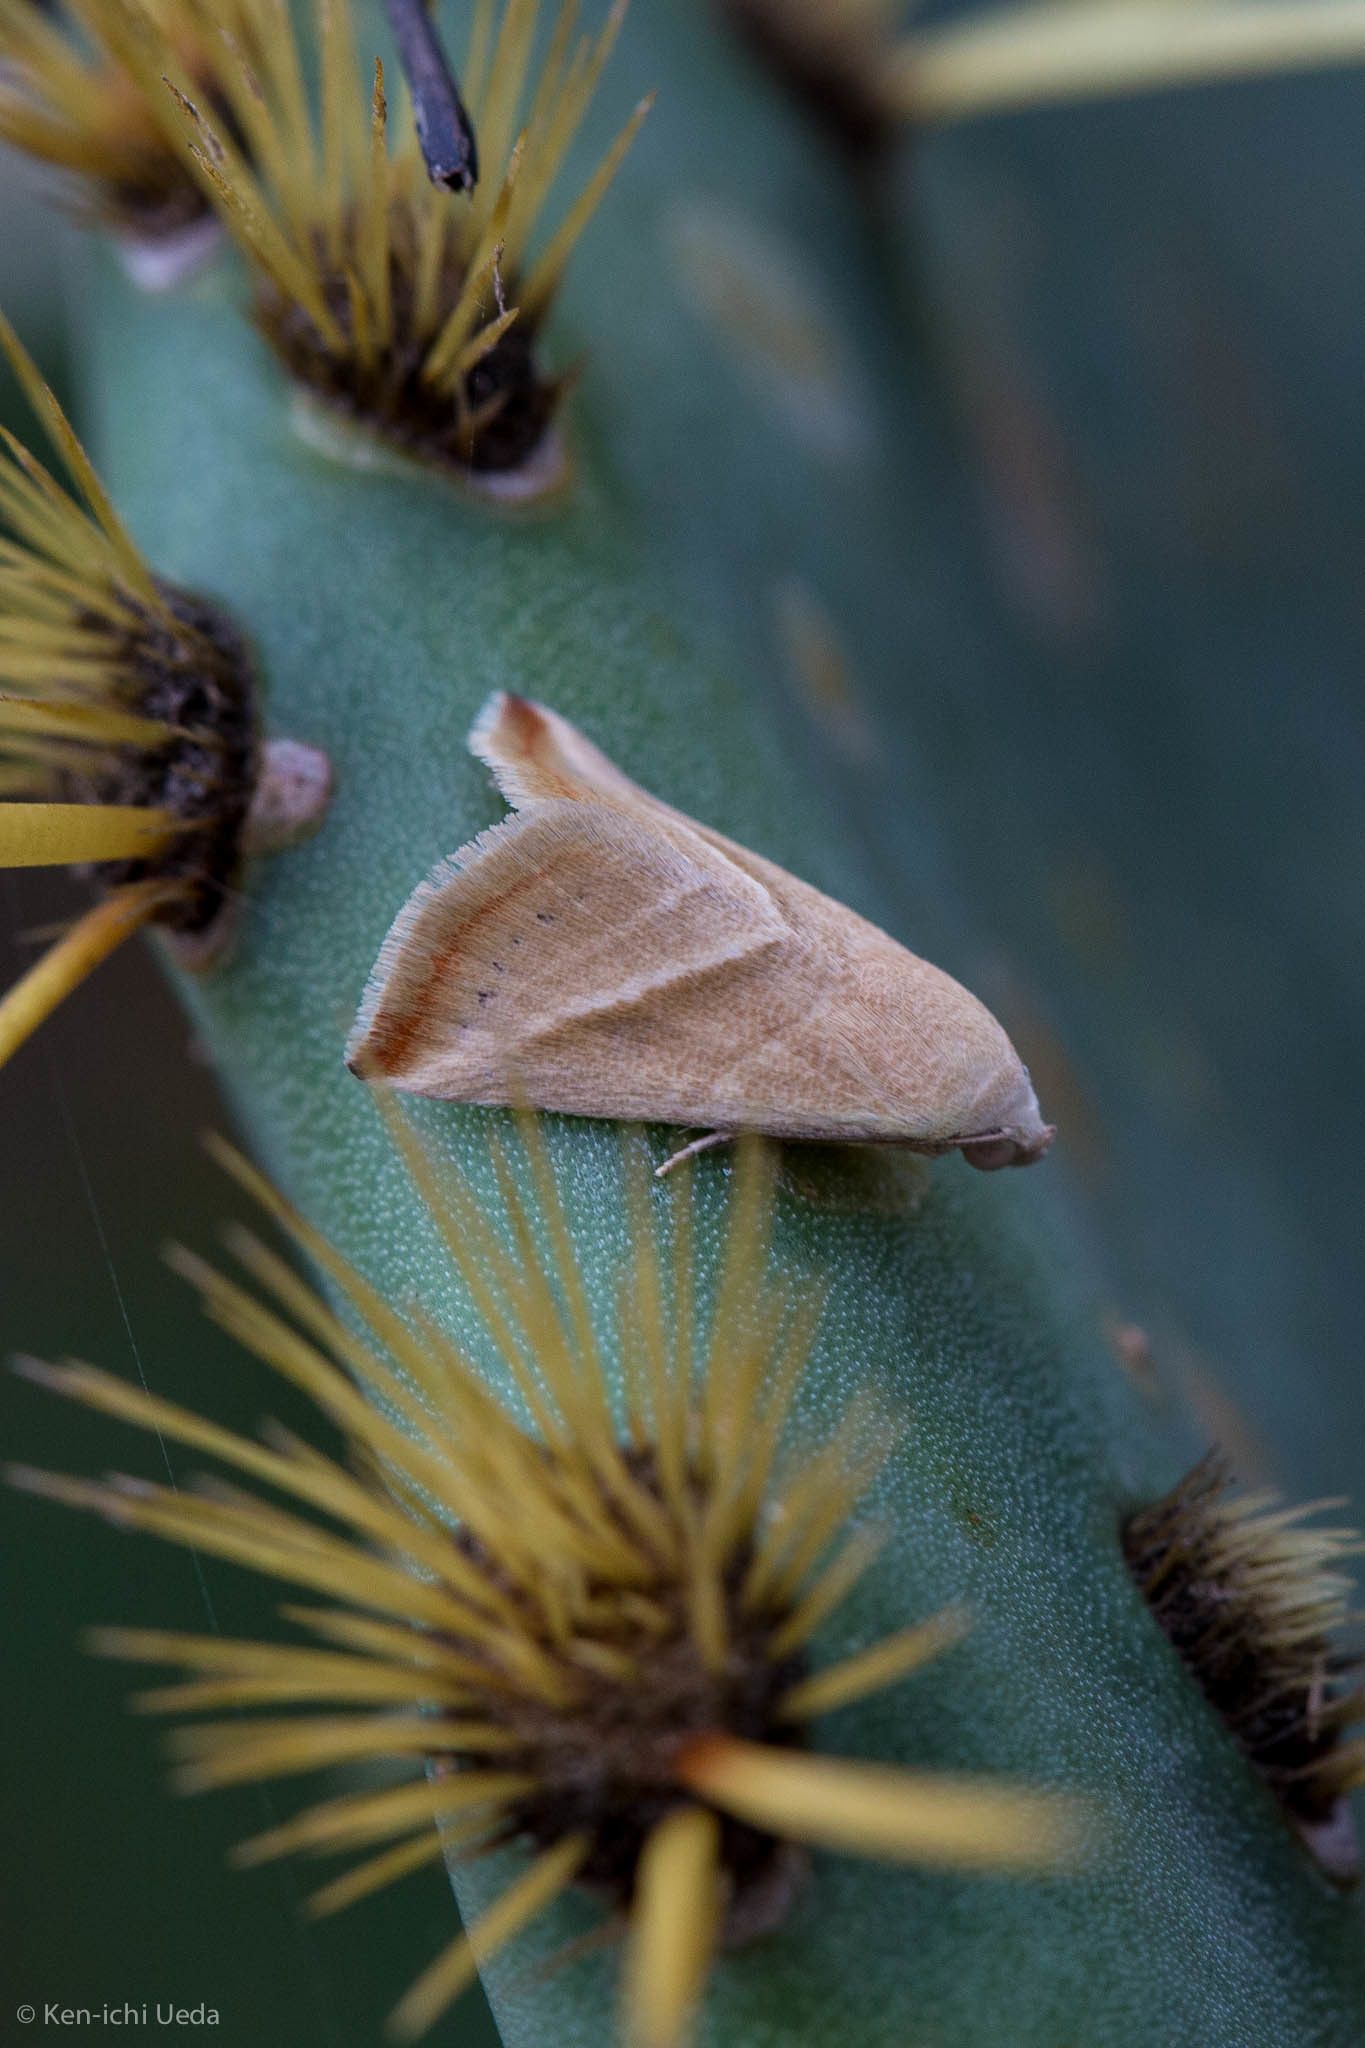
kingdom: Animalia
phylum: Arthropoda
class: Insecta
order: Lepidoptera
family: Noctuidae
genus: Eublemma
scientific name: Eublemma recta
